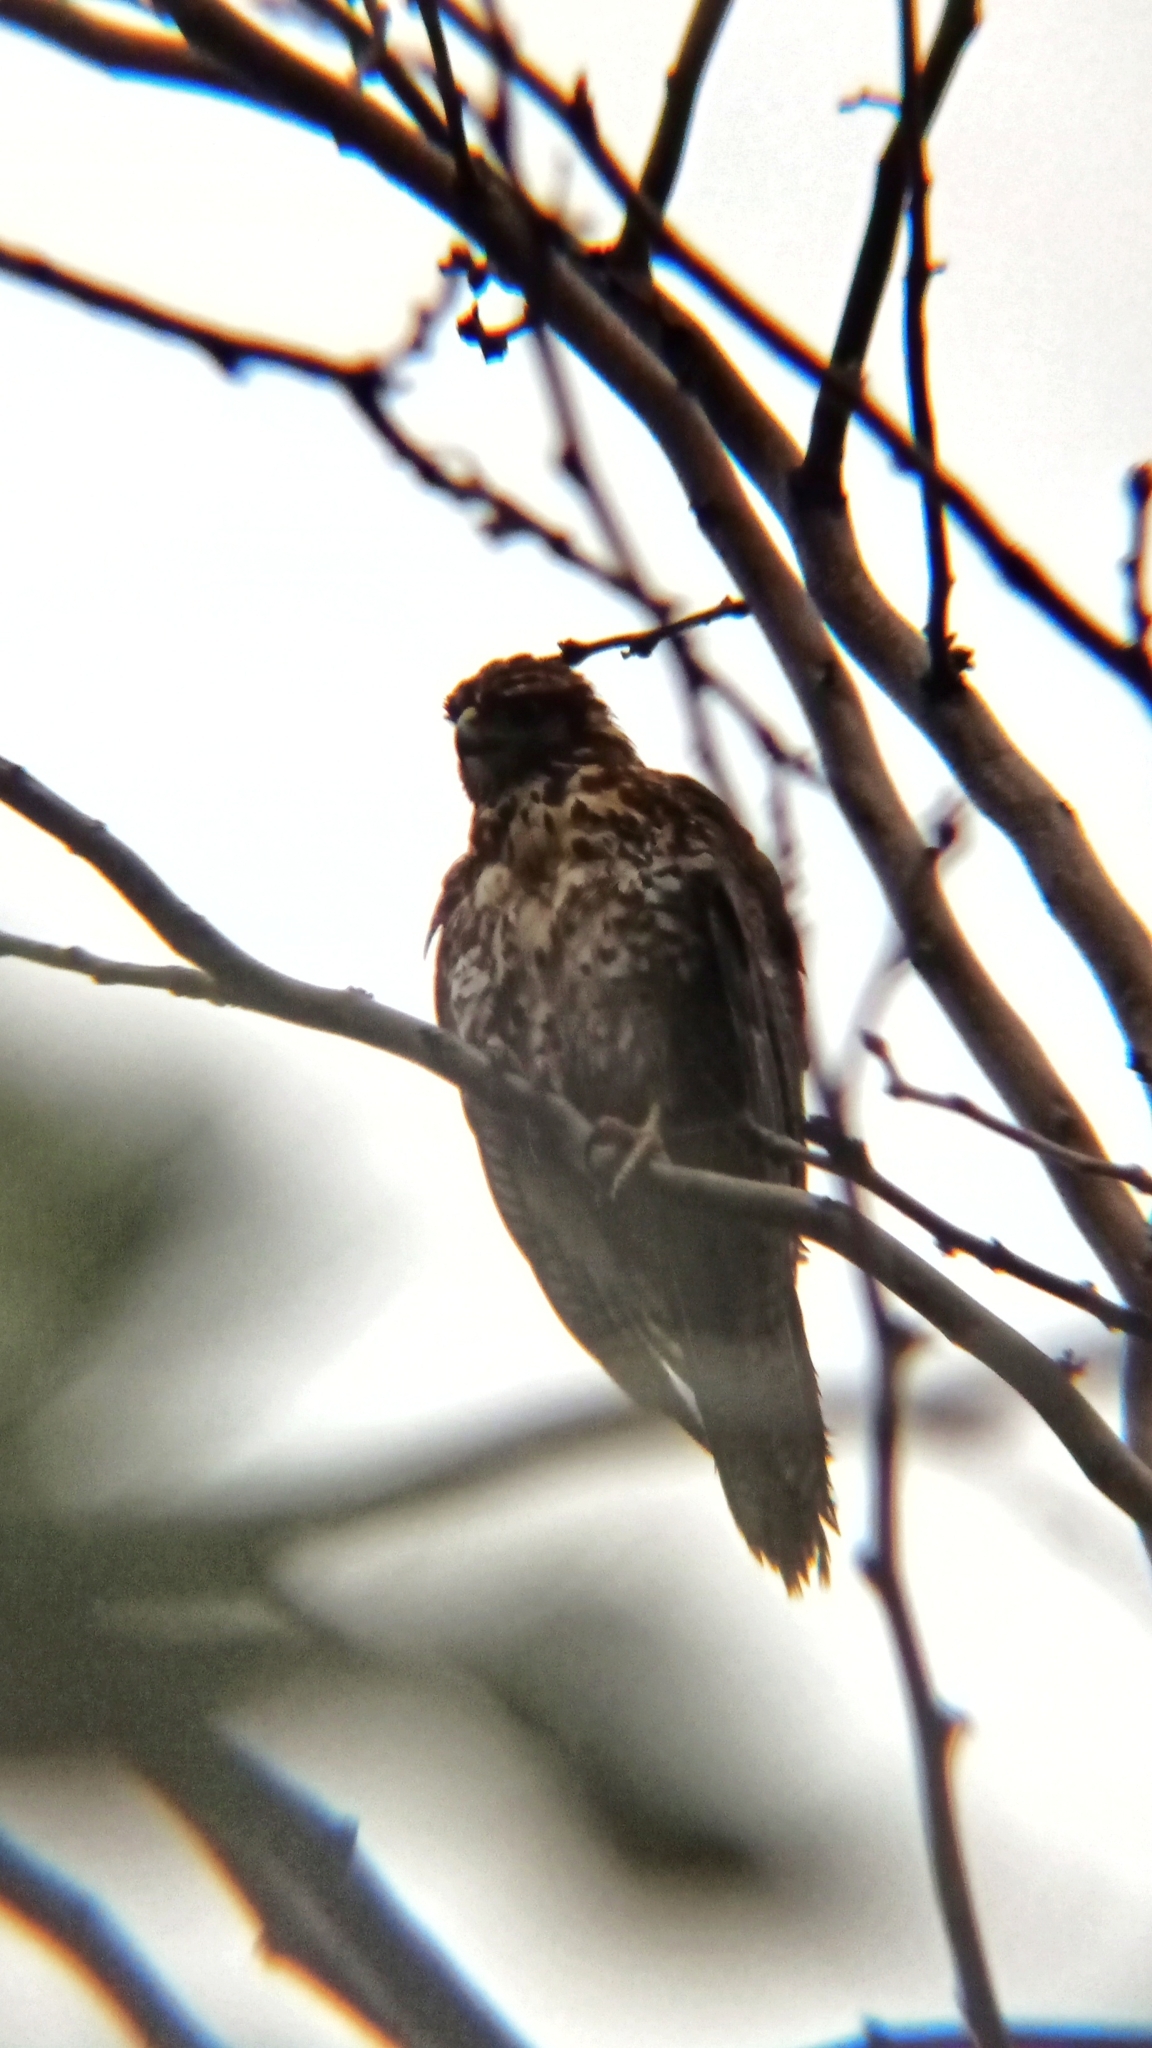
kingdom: Animalia
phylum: Chordata
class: Aves
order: Accipitriformes
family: Accipitridae
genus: Parabuteo
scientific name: Parabuteo unicinctus
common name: Harris's hawk
